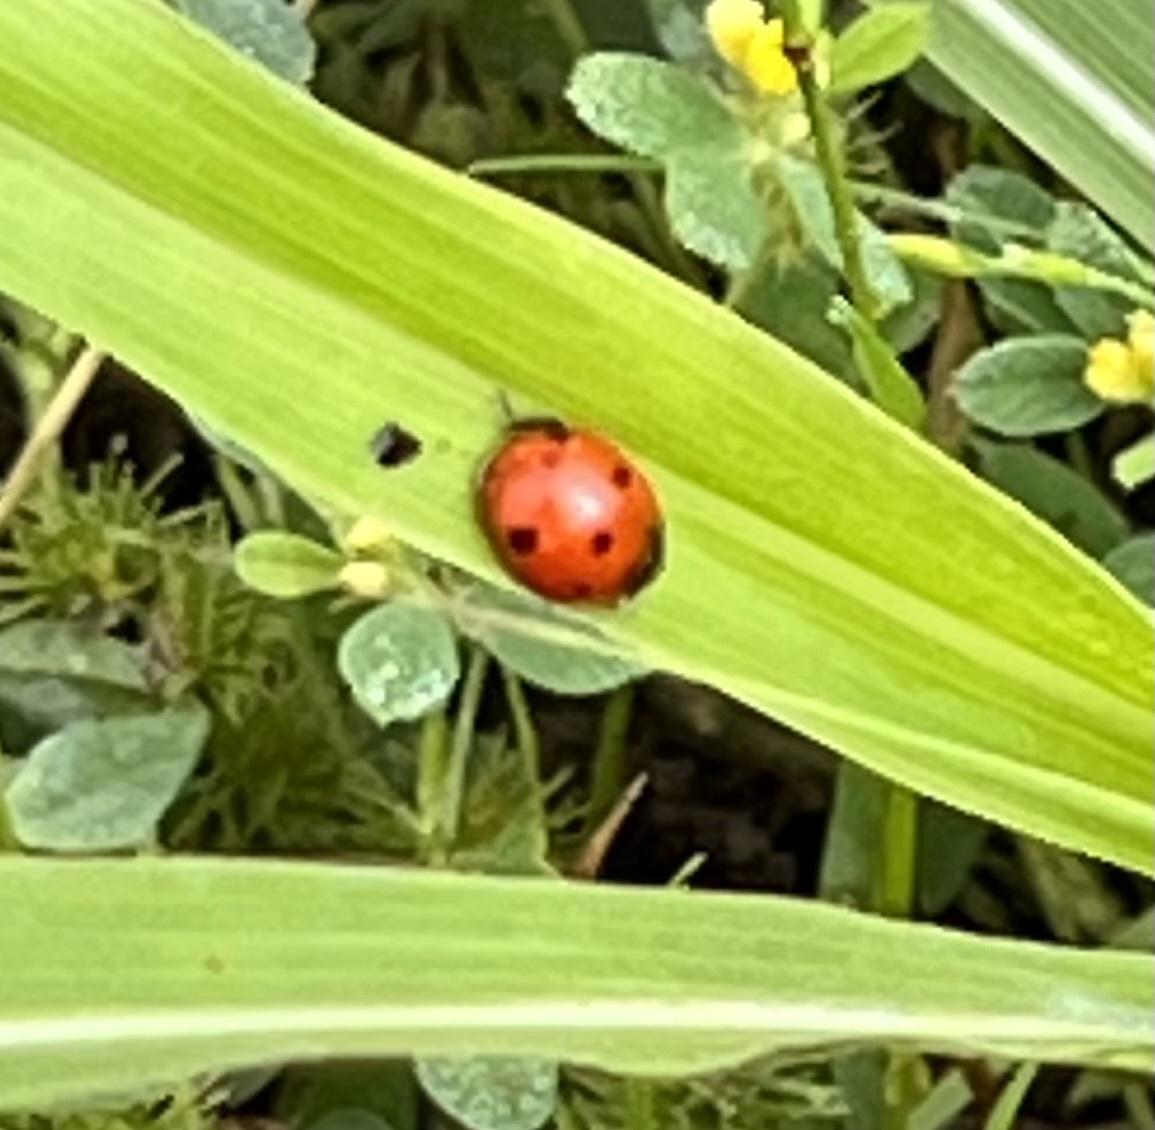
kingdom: Animalia
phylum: Arthropoda
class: Insecta
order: Coleoptera
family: Coccinellidae
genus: Coccinella
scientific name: Coccinella septempunctata
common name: Sevenspotted lady beetle
